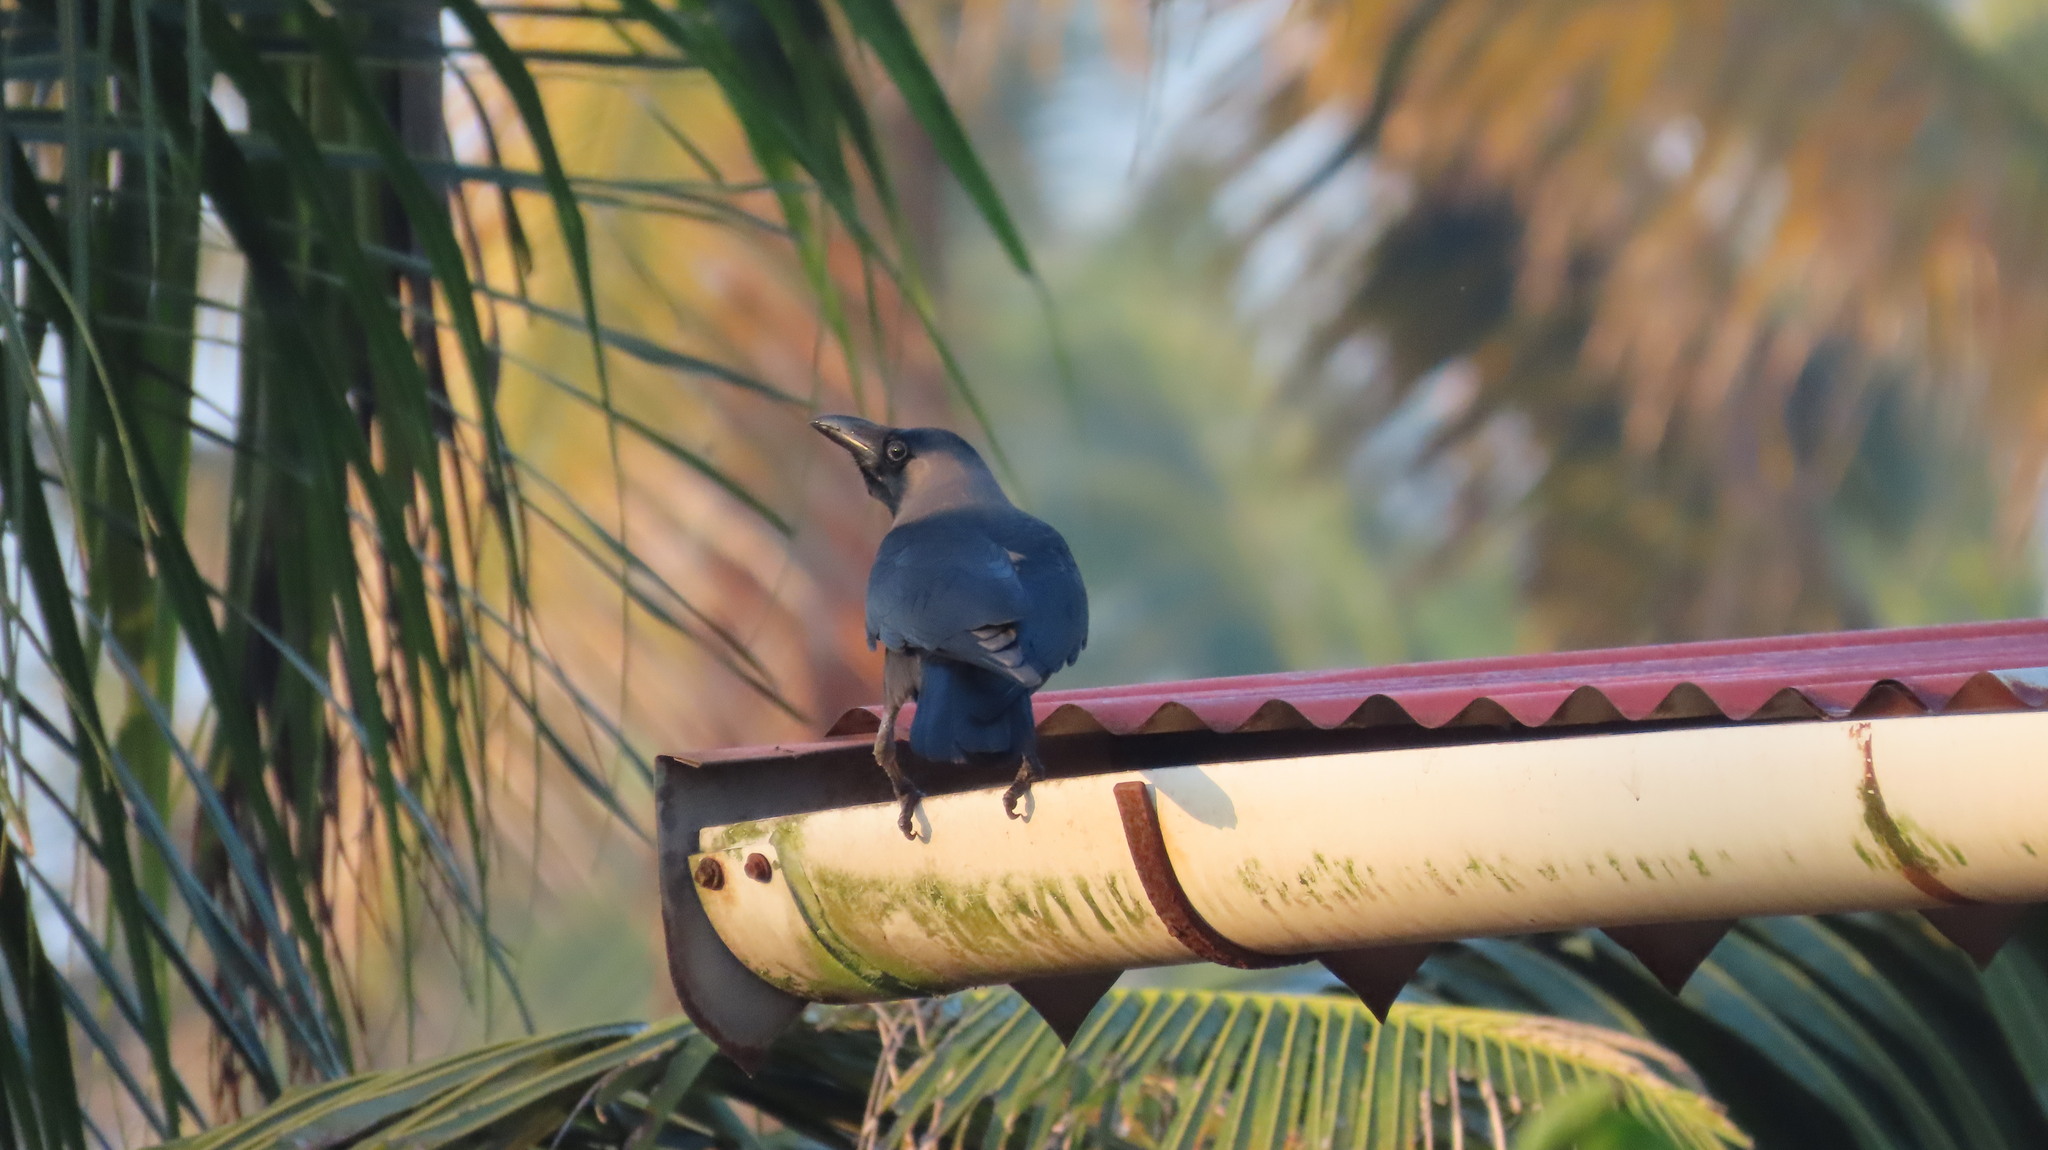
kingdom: Animalia
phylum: Chordata
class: Aves
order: Passeriformes
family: Corvidae
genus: Corvus
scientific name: Corvus splendens
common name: House crow
